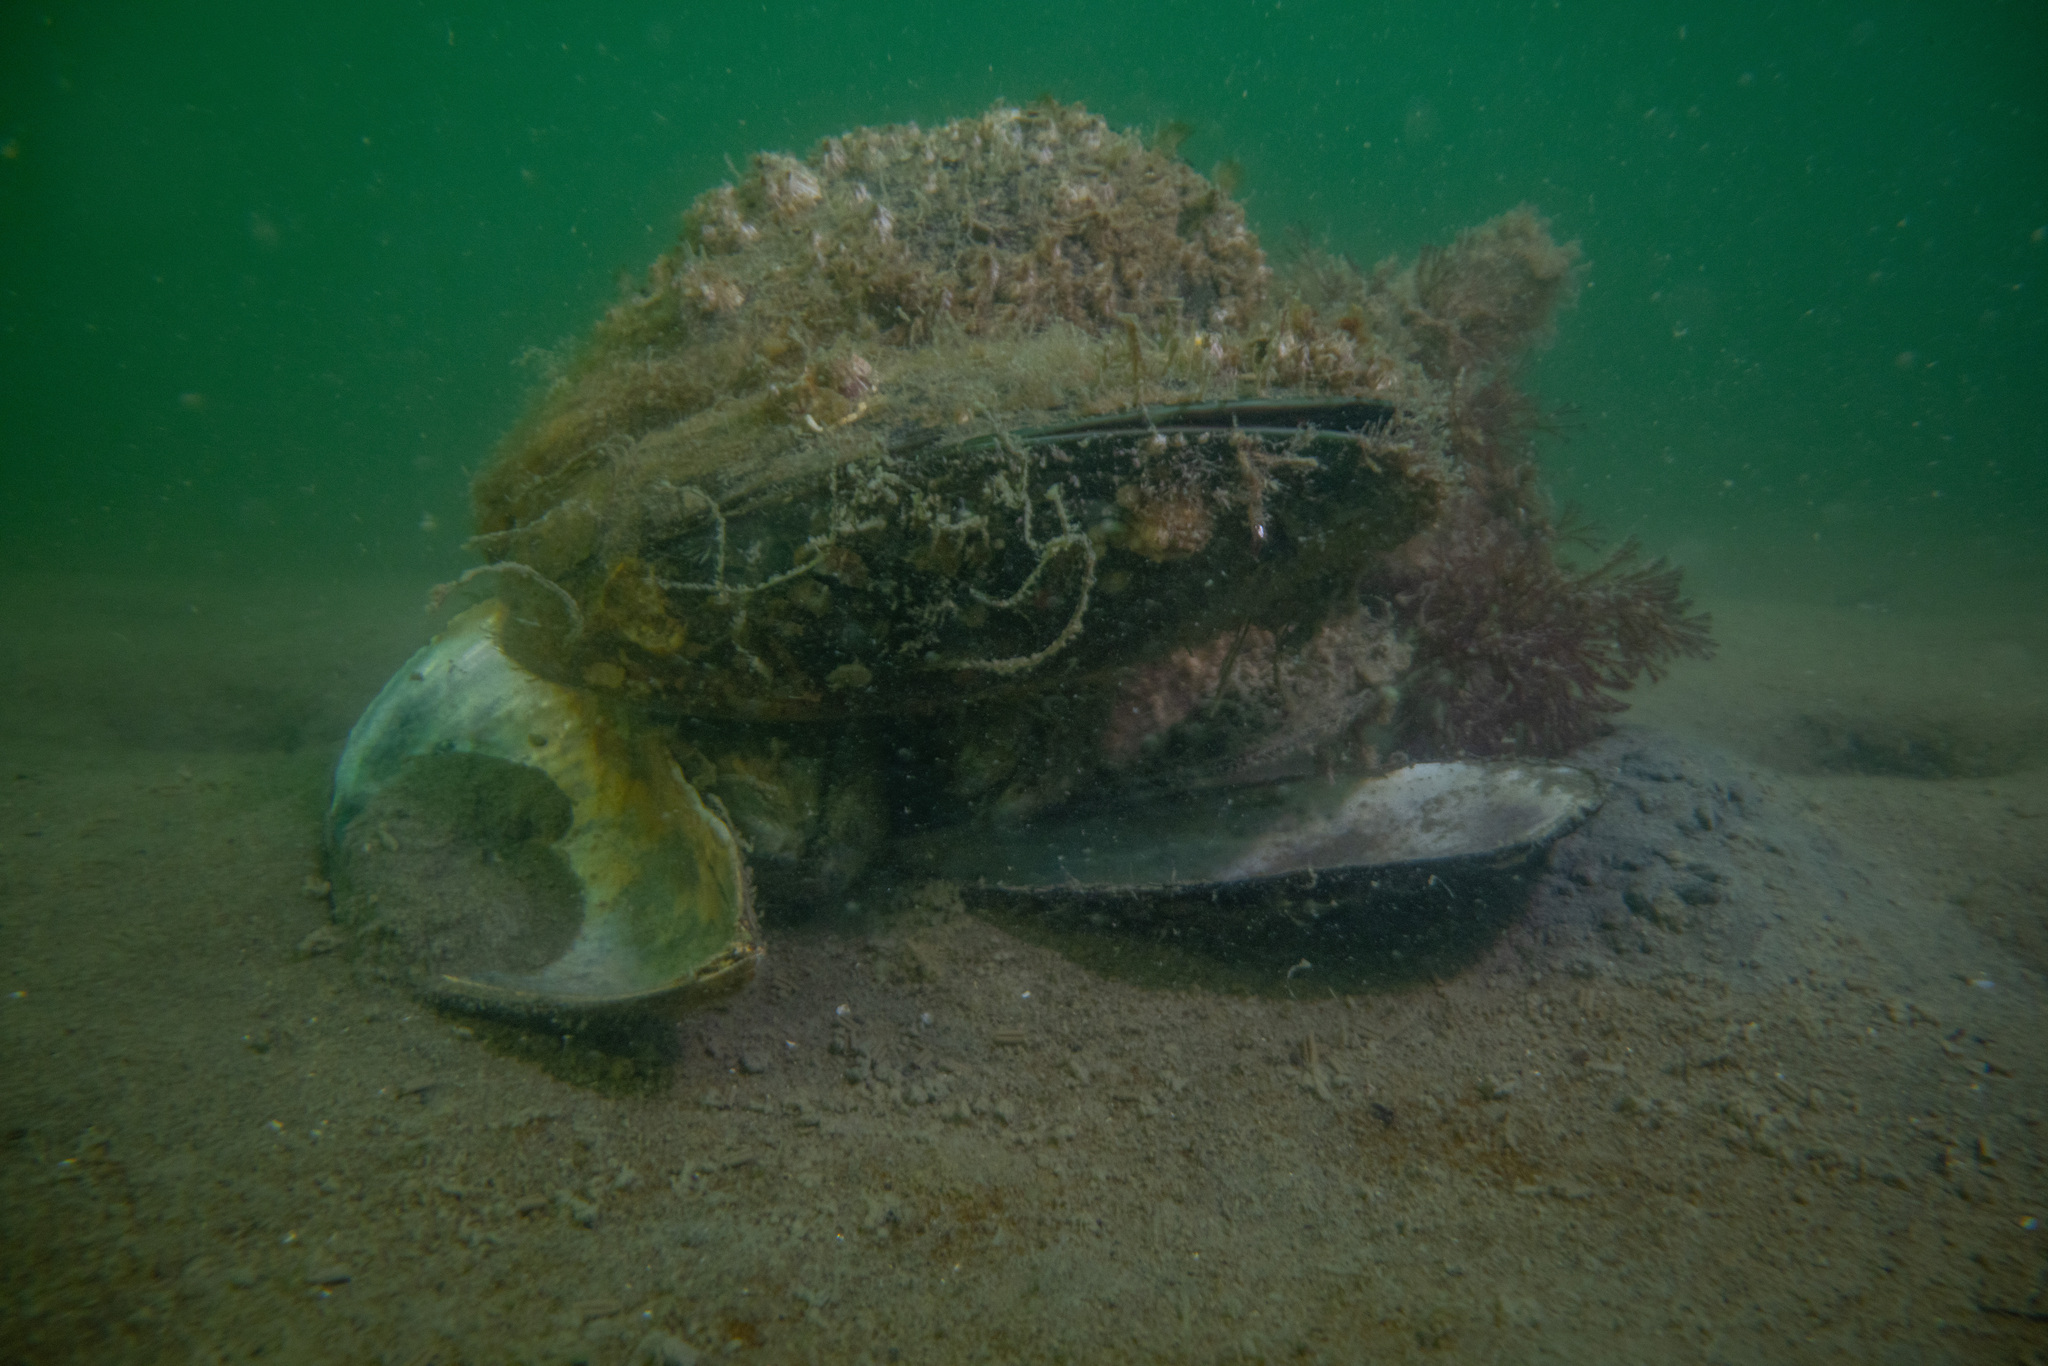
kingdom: Animalia
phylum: Mollusca
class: Bivalvia
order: Mytilida
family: Mytilidae
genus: Perna
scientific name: Perna canaliculus
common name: New zealand greenshelltm
